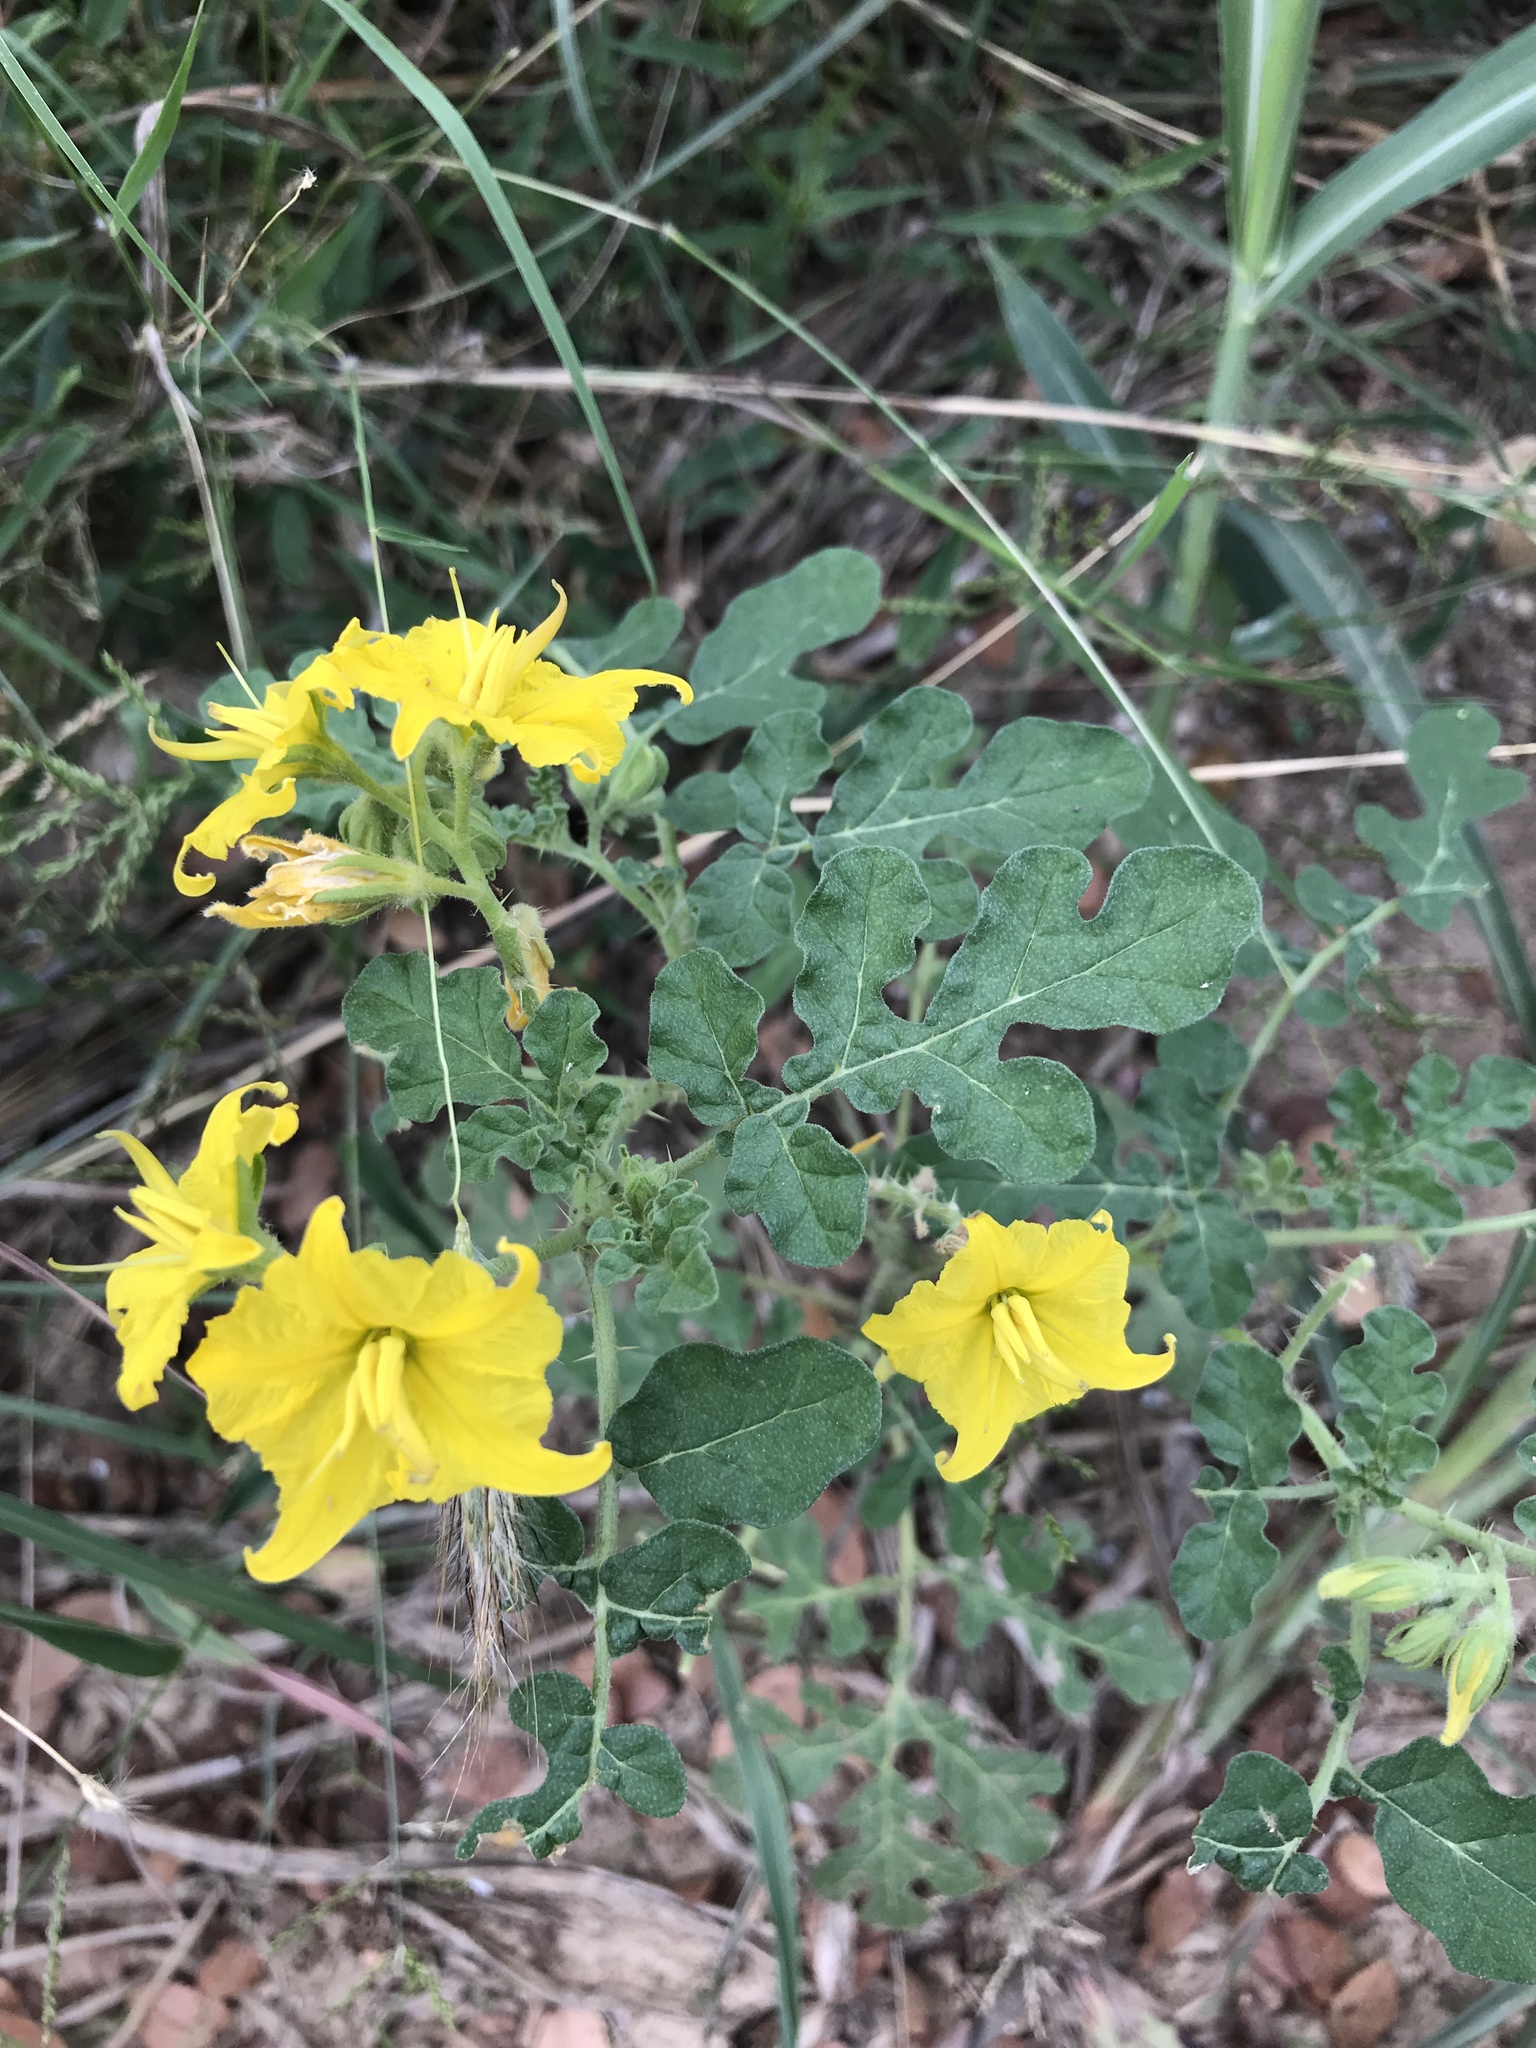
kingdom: Plantae
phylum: Tracheophyta
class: Magnoliopsida
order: Solanales
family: Solanaceae
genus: Solanum
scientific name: Solanum angustifolium
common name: Buffalobur nightshade
